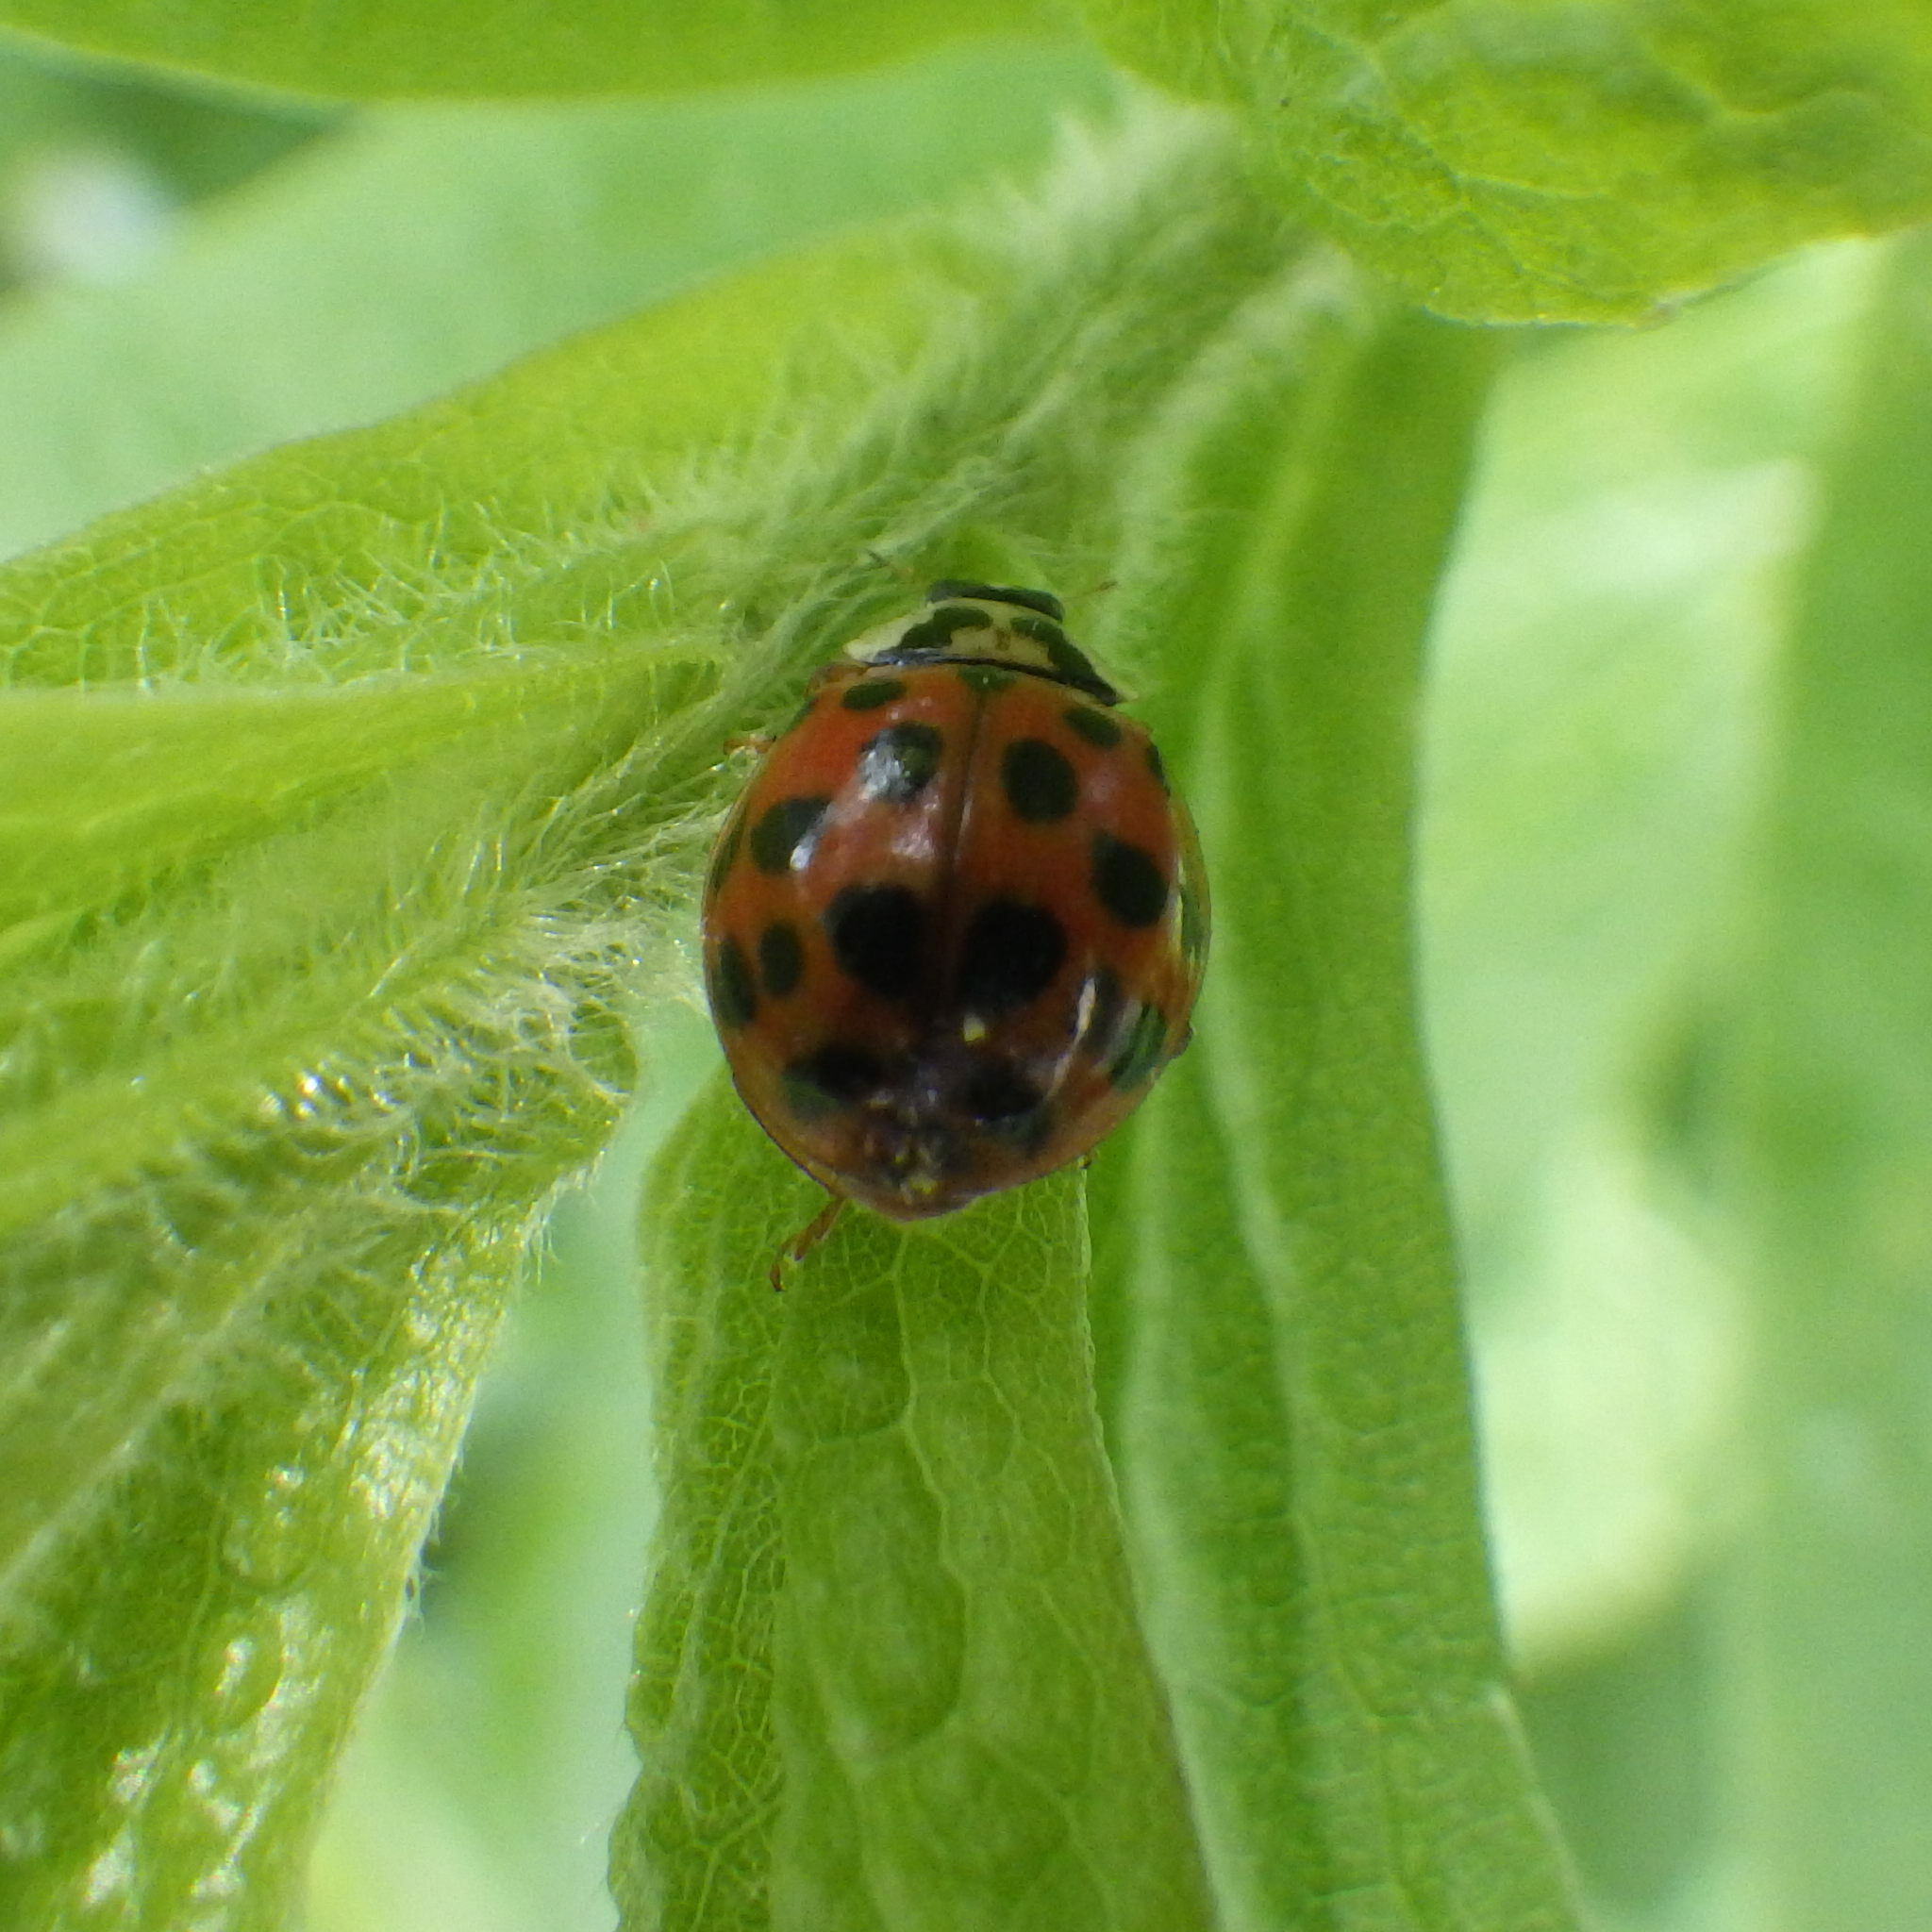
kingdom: Animalia
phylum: Arthropoda
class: Insecta
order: Coleoptera
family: Coccinellidae
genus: Harmonia
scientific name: Harmonia axyridis
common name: Harlequin ladybird
